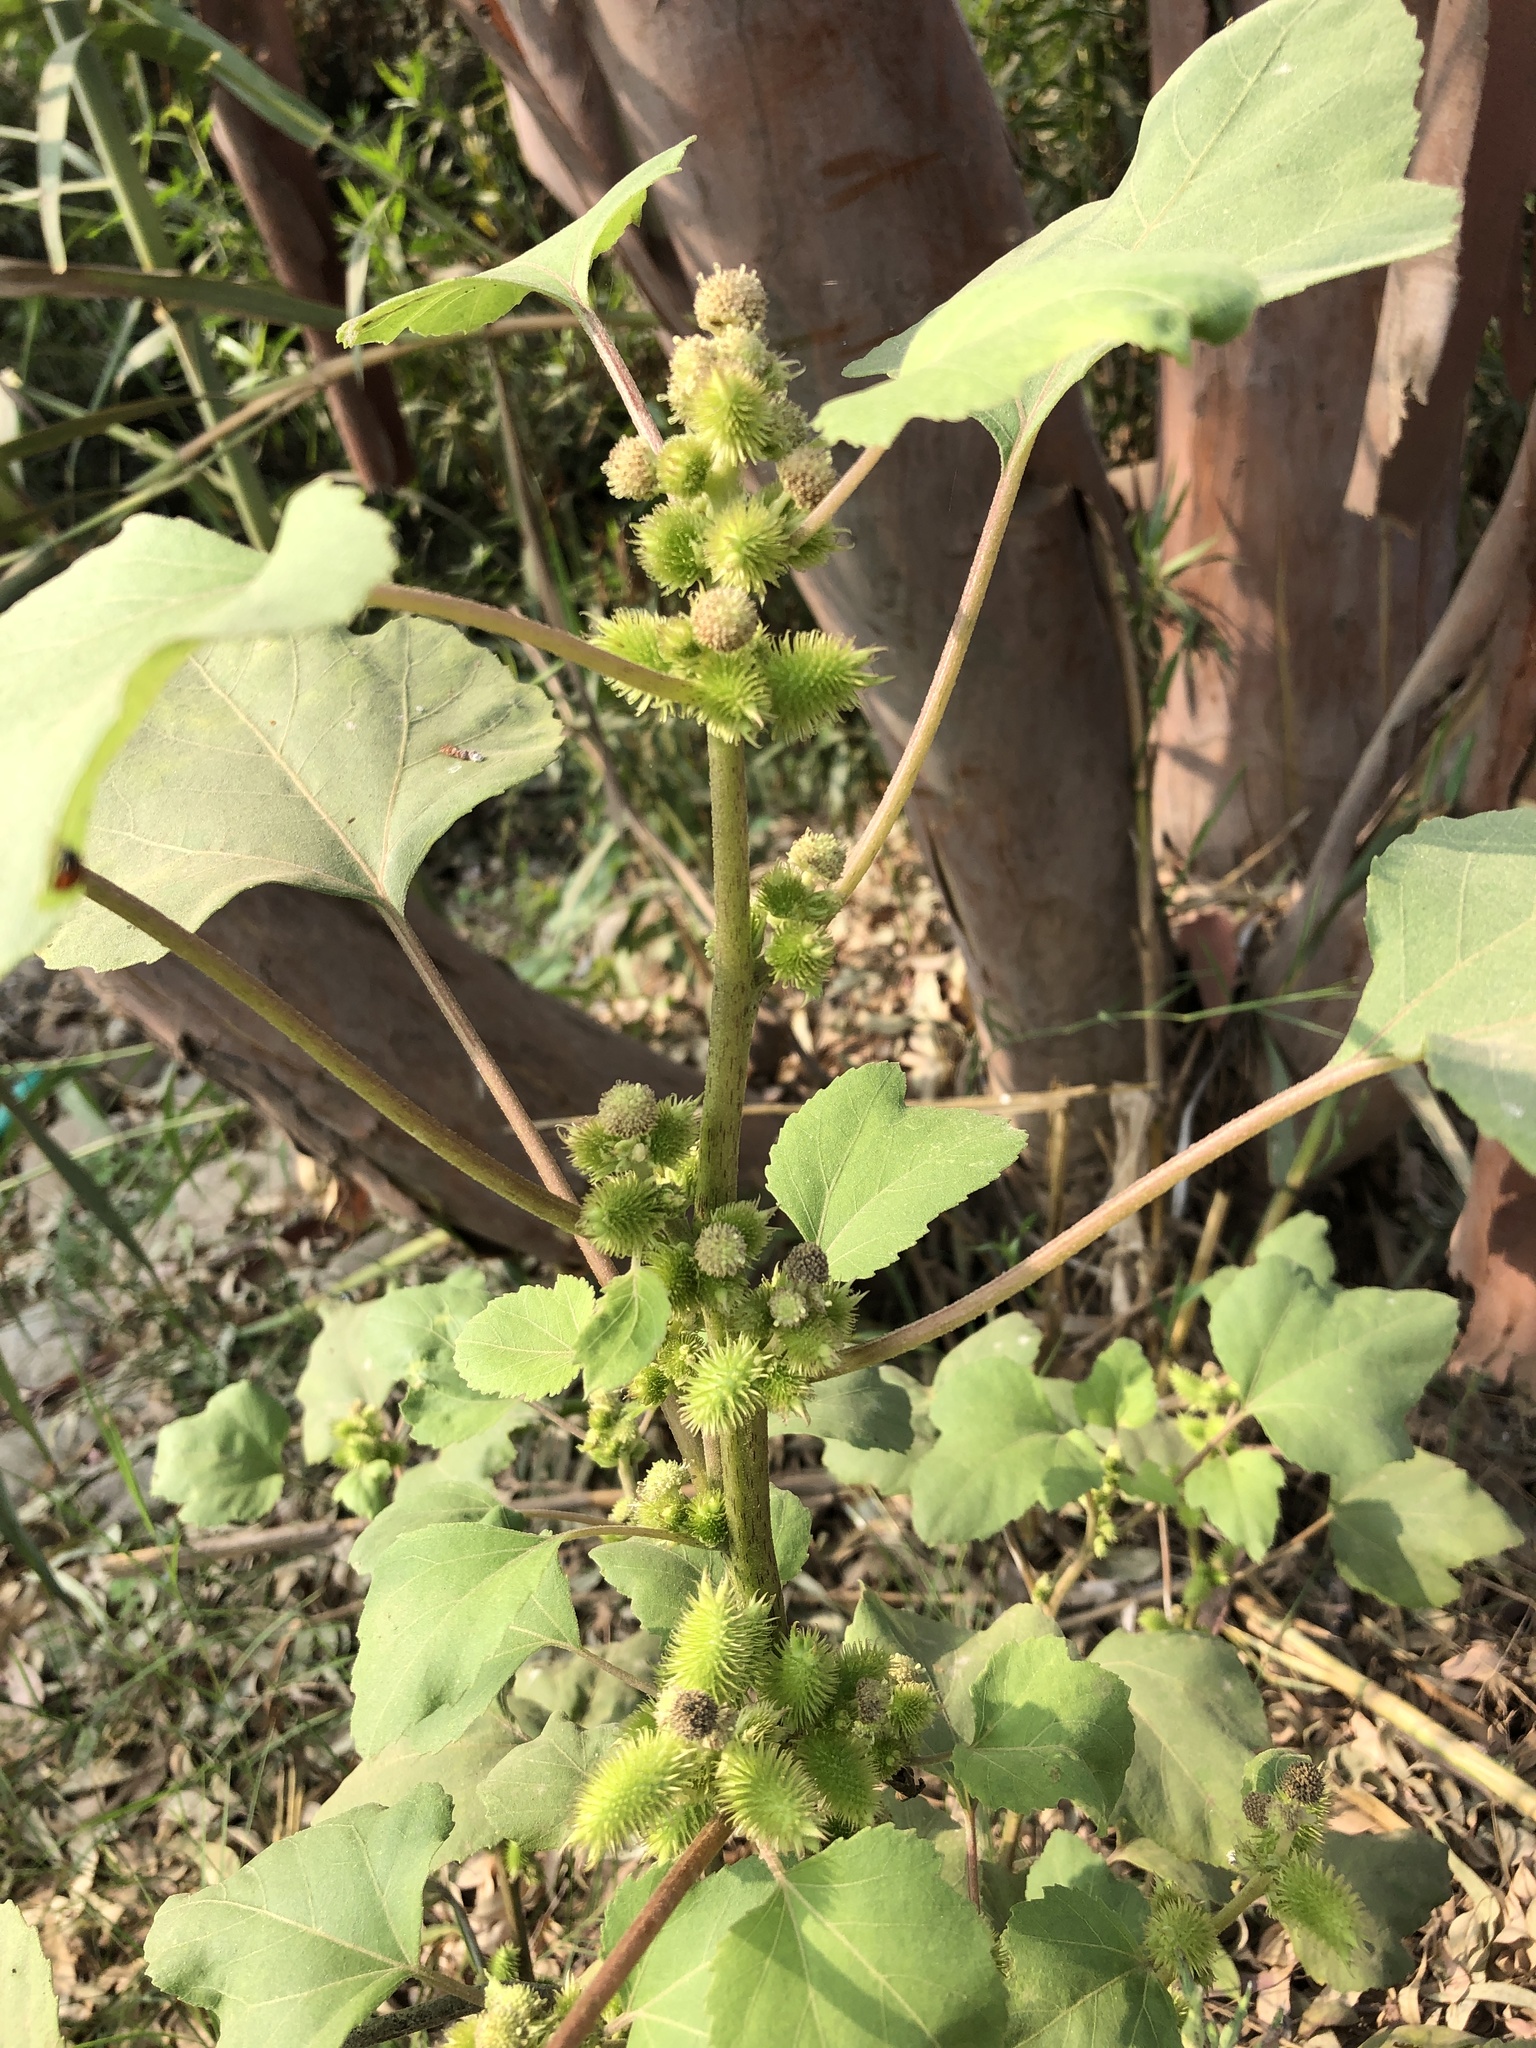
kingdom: Plantae
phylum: Tracheophyta
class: Magnoliopsida
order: Asterales
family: Asteraceae
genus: Xanthium
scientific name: Xanthium strumarium
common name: Rough cocklebur
